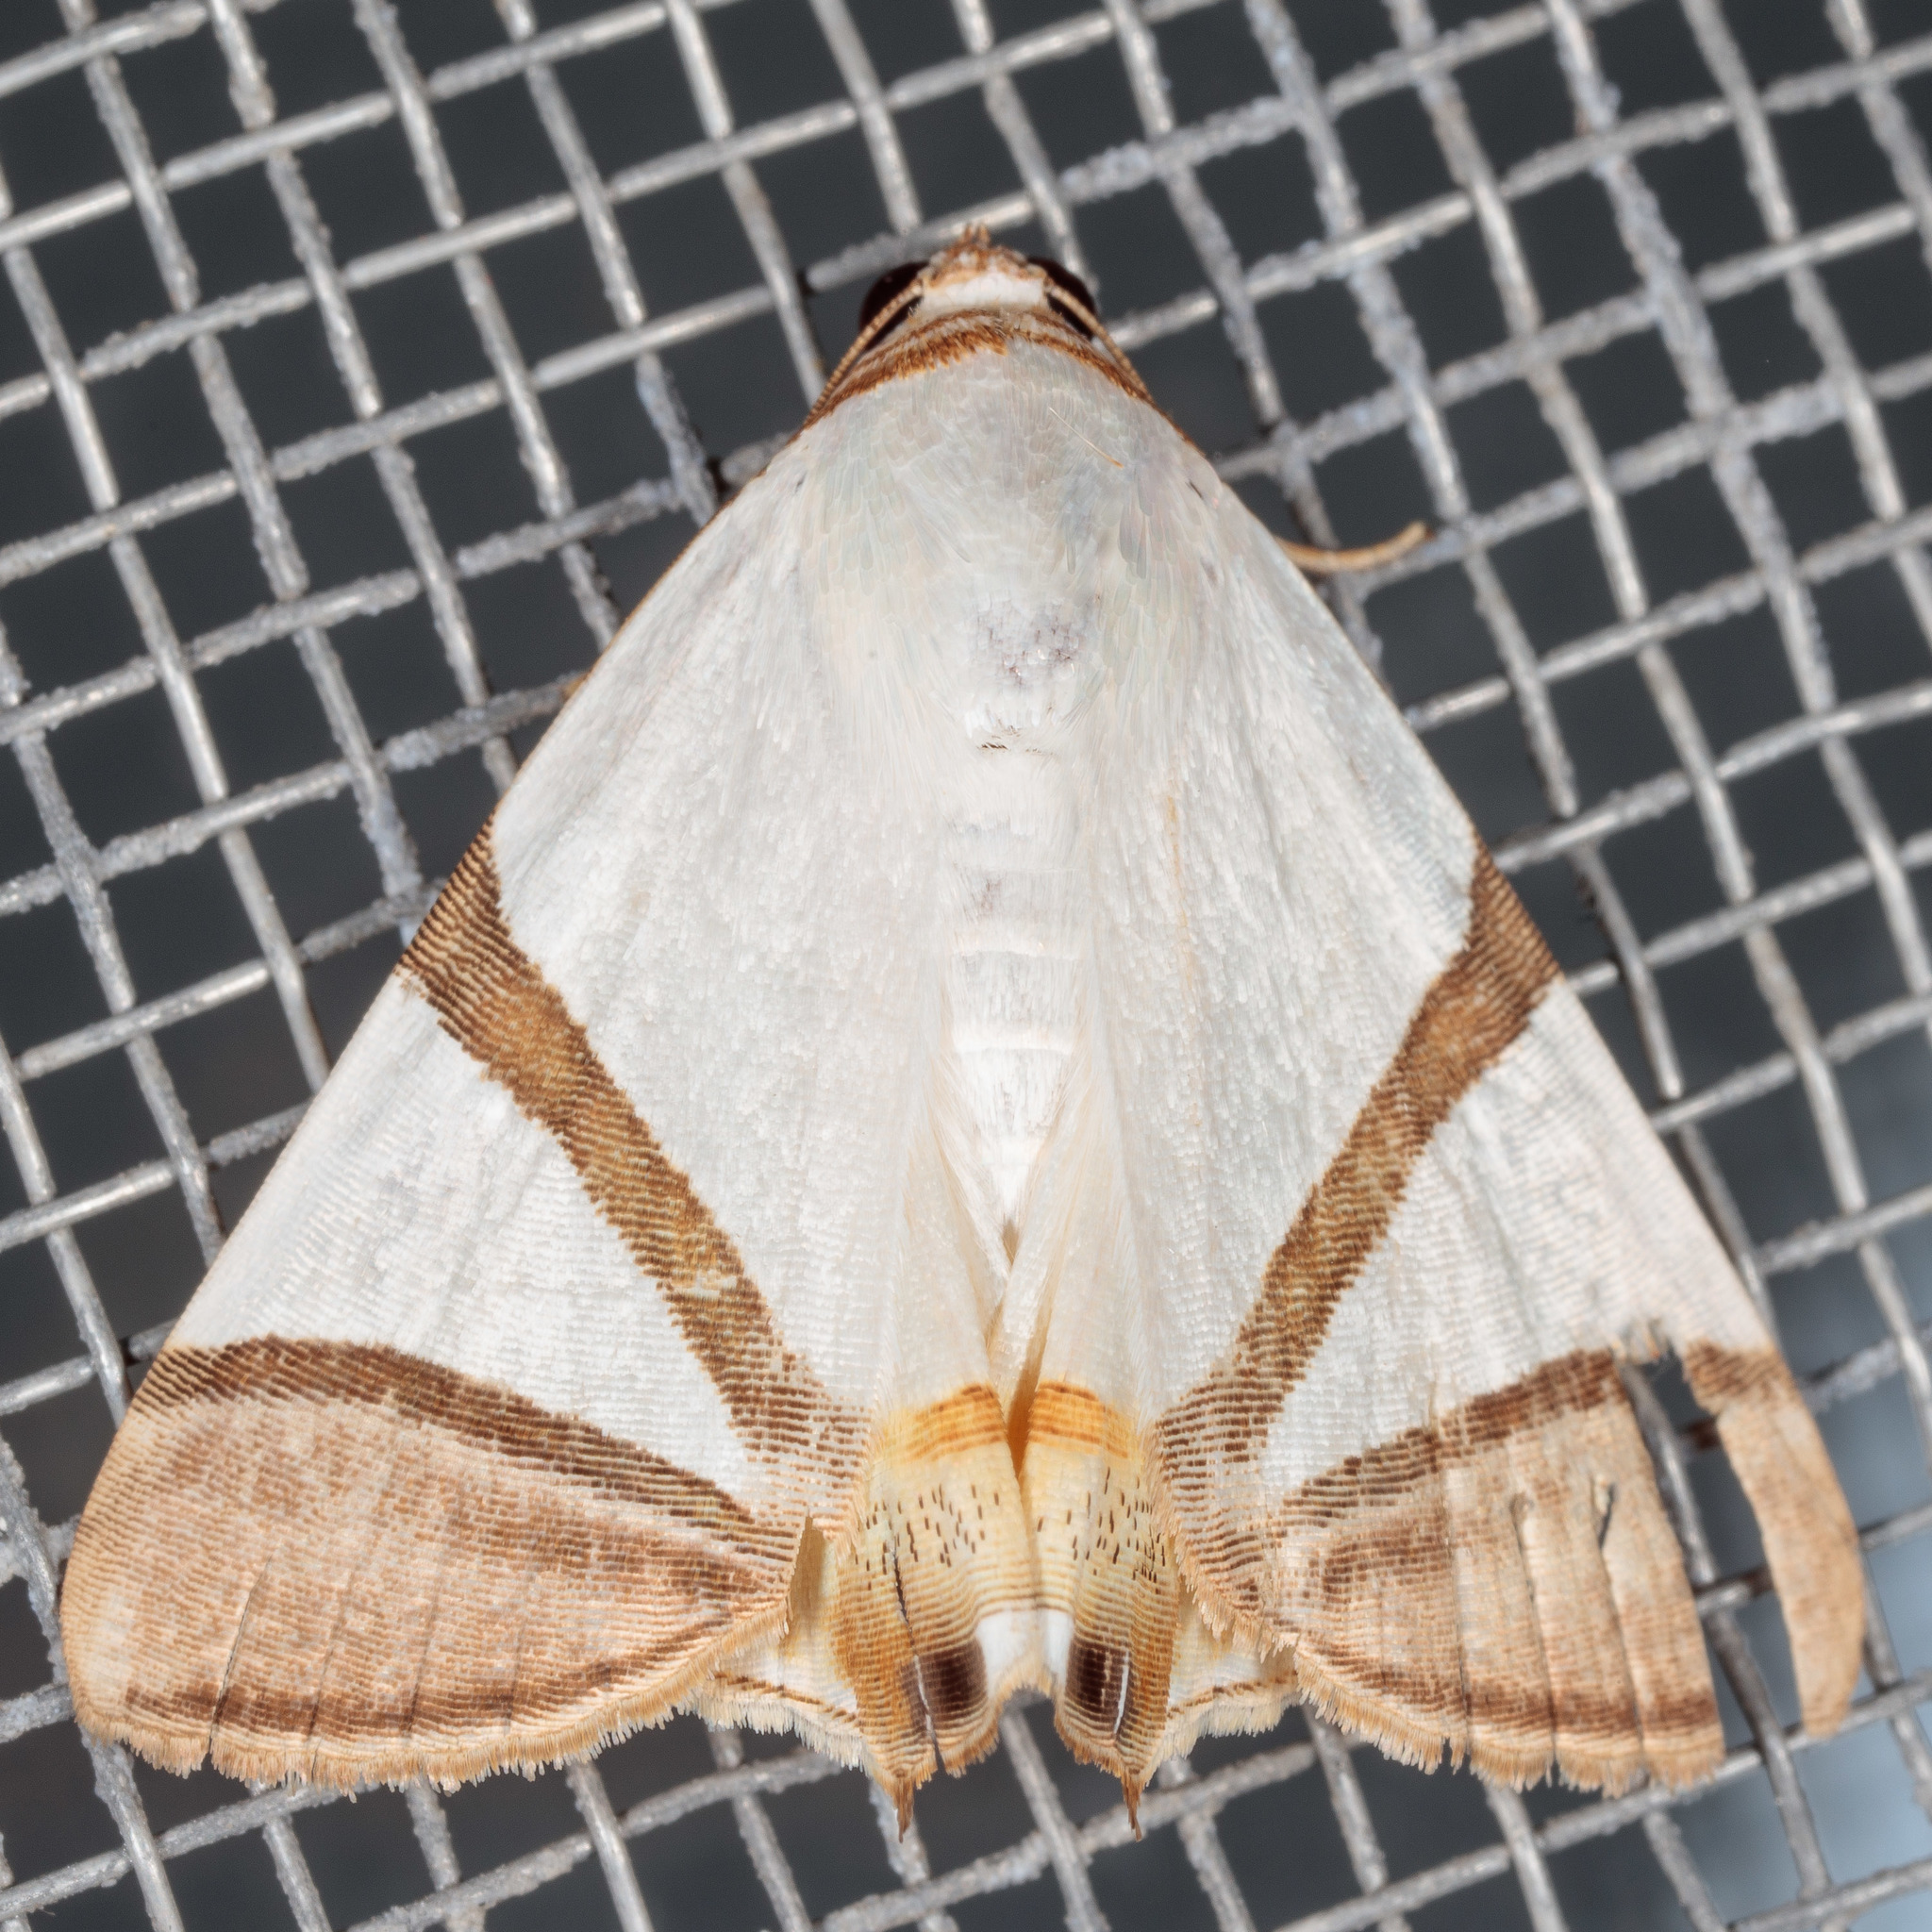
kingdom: Animalia
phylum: Arthropoda
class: Insecta
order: Lepidoptera
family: Erebidae
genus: Eulepidotis
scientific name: Eulepidotis persimilis
